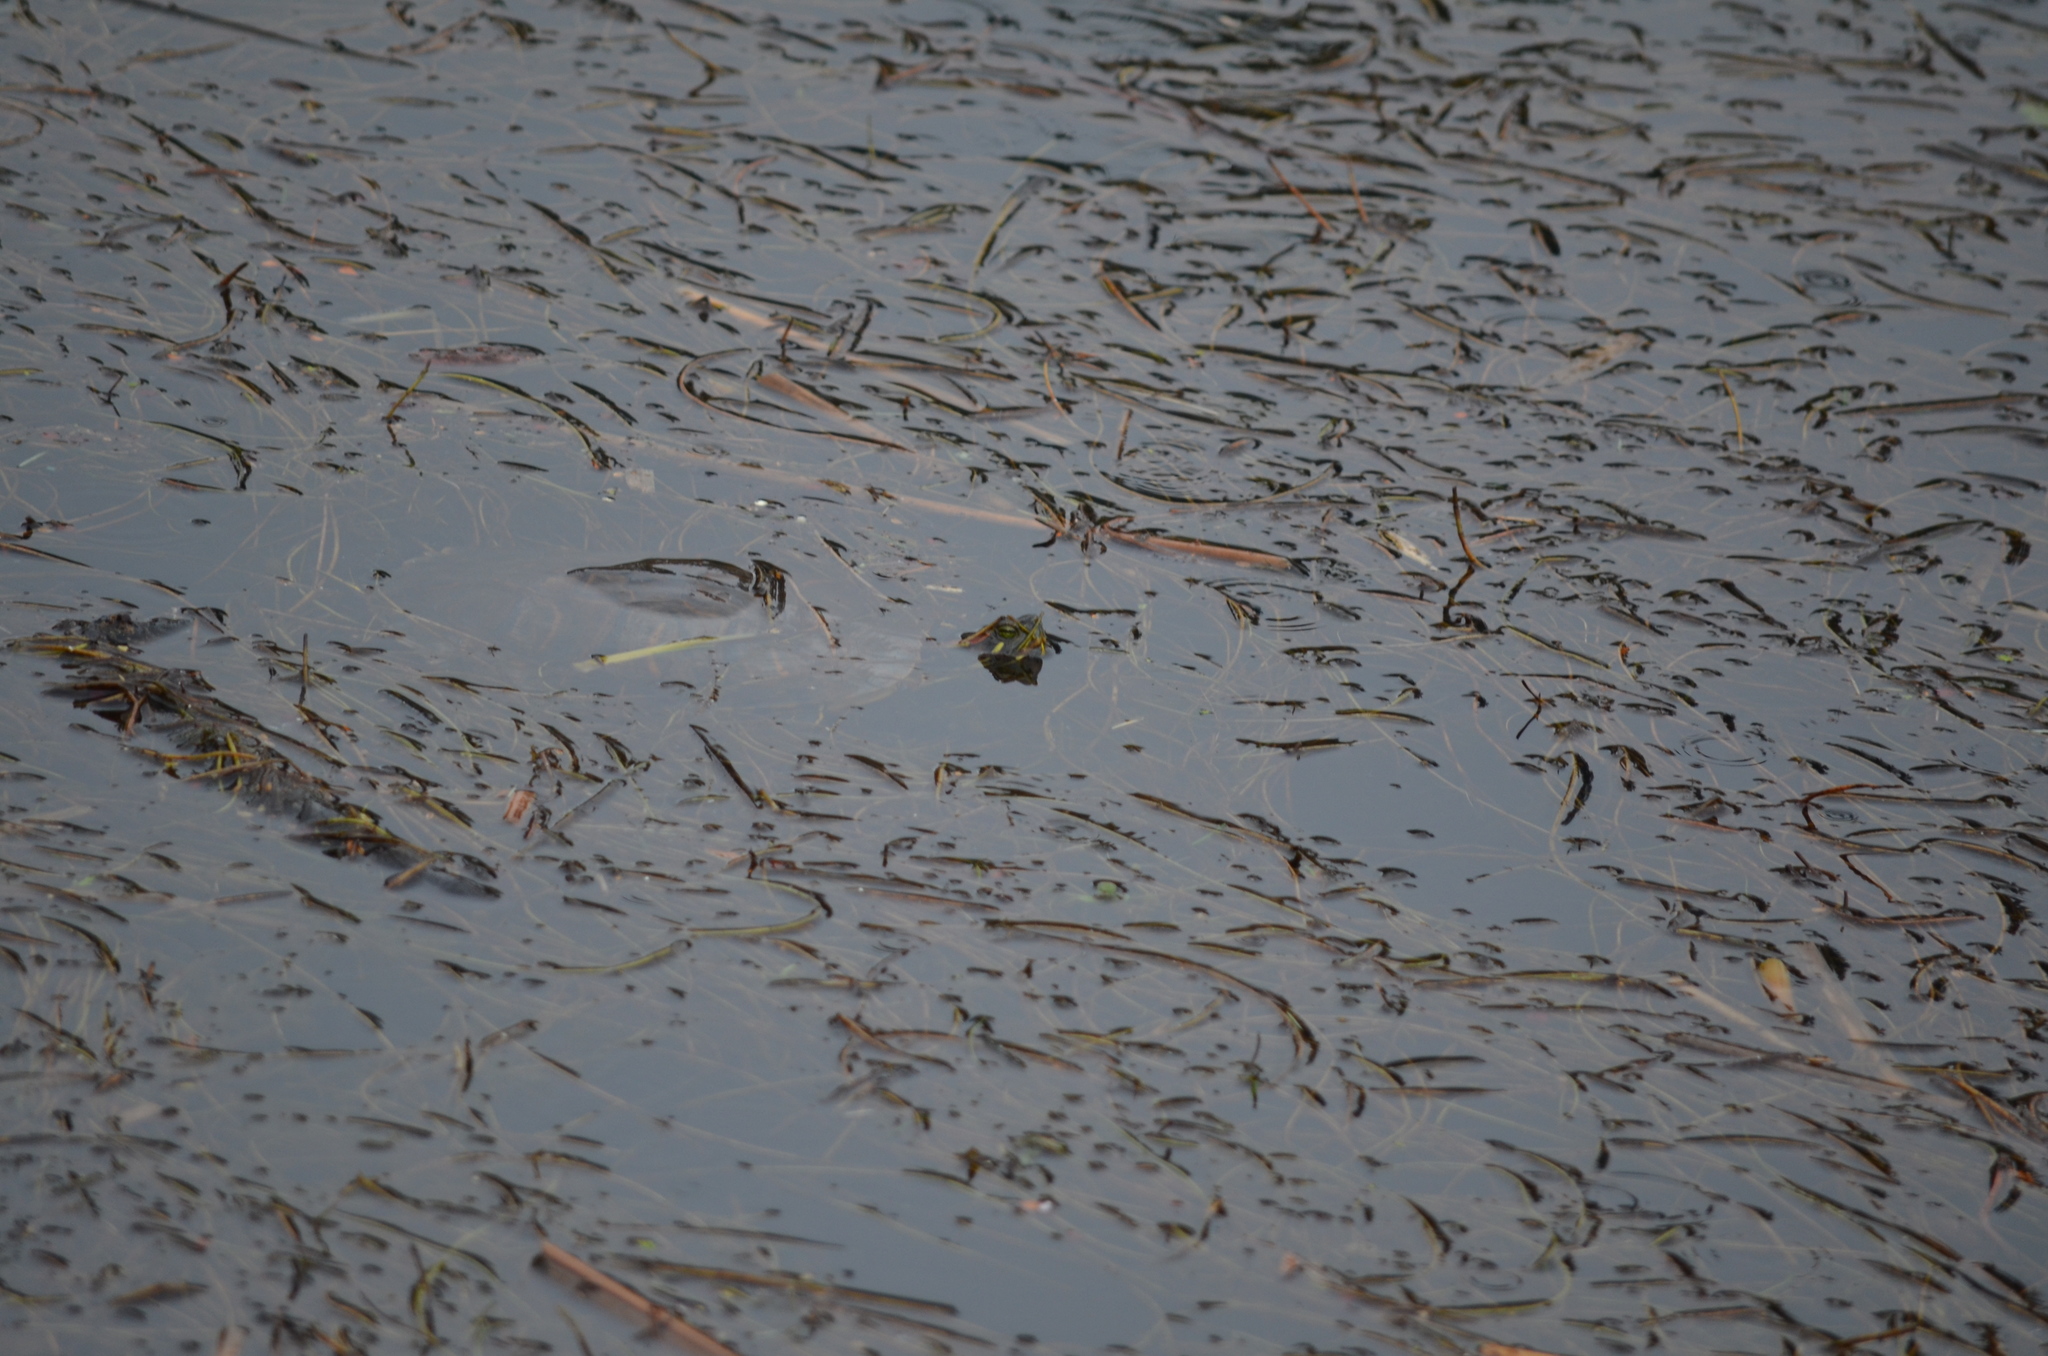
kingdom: Animalia
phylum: Chordata
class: Testudines
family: Emydidae
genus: Trachemys
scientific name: Trachemys scripta
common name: Slider
